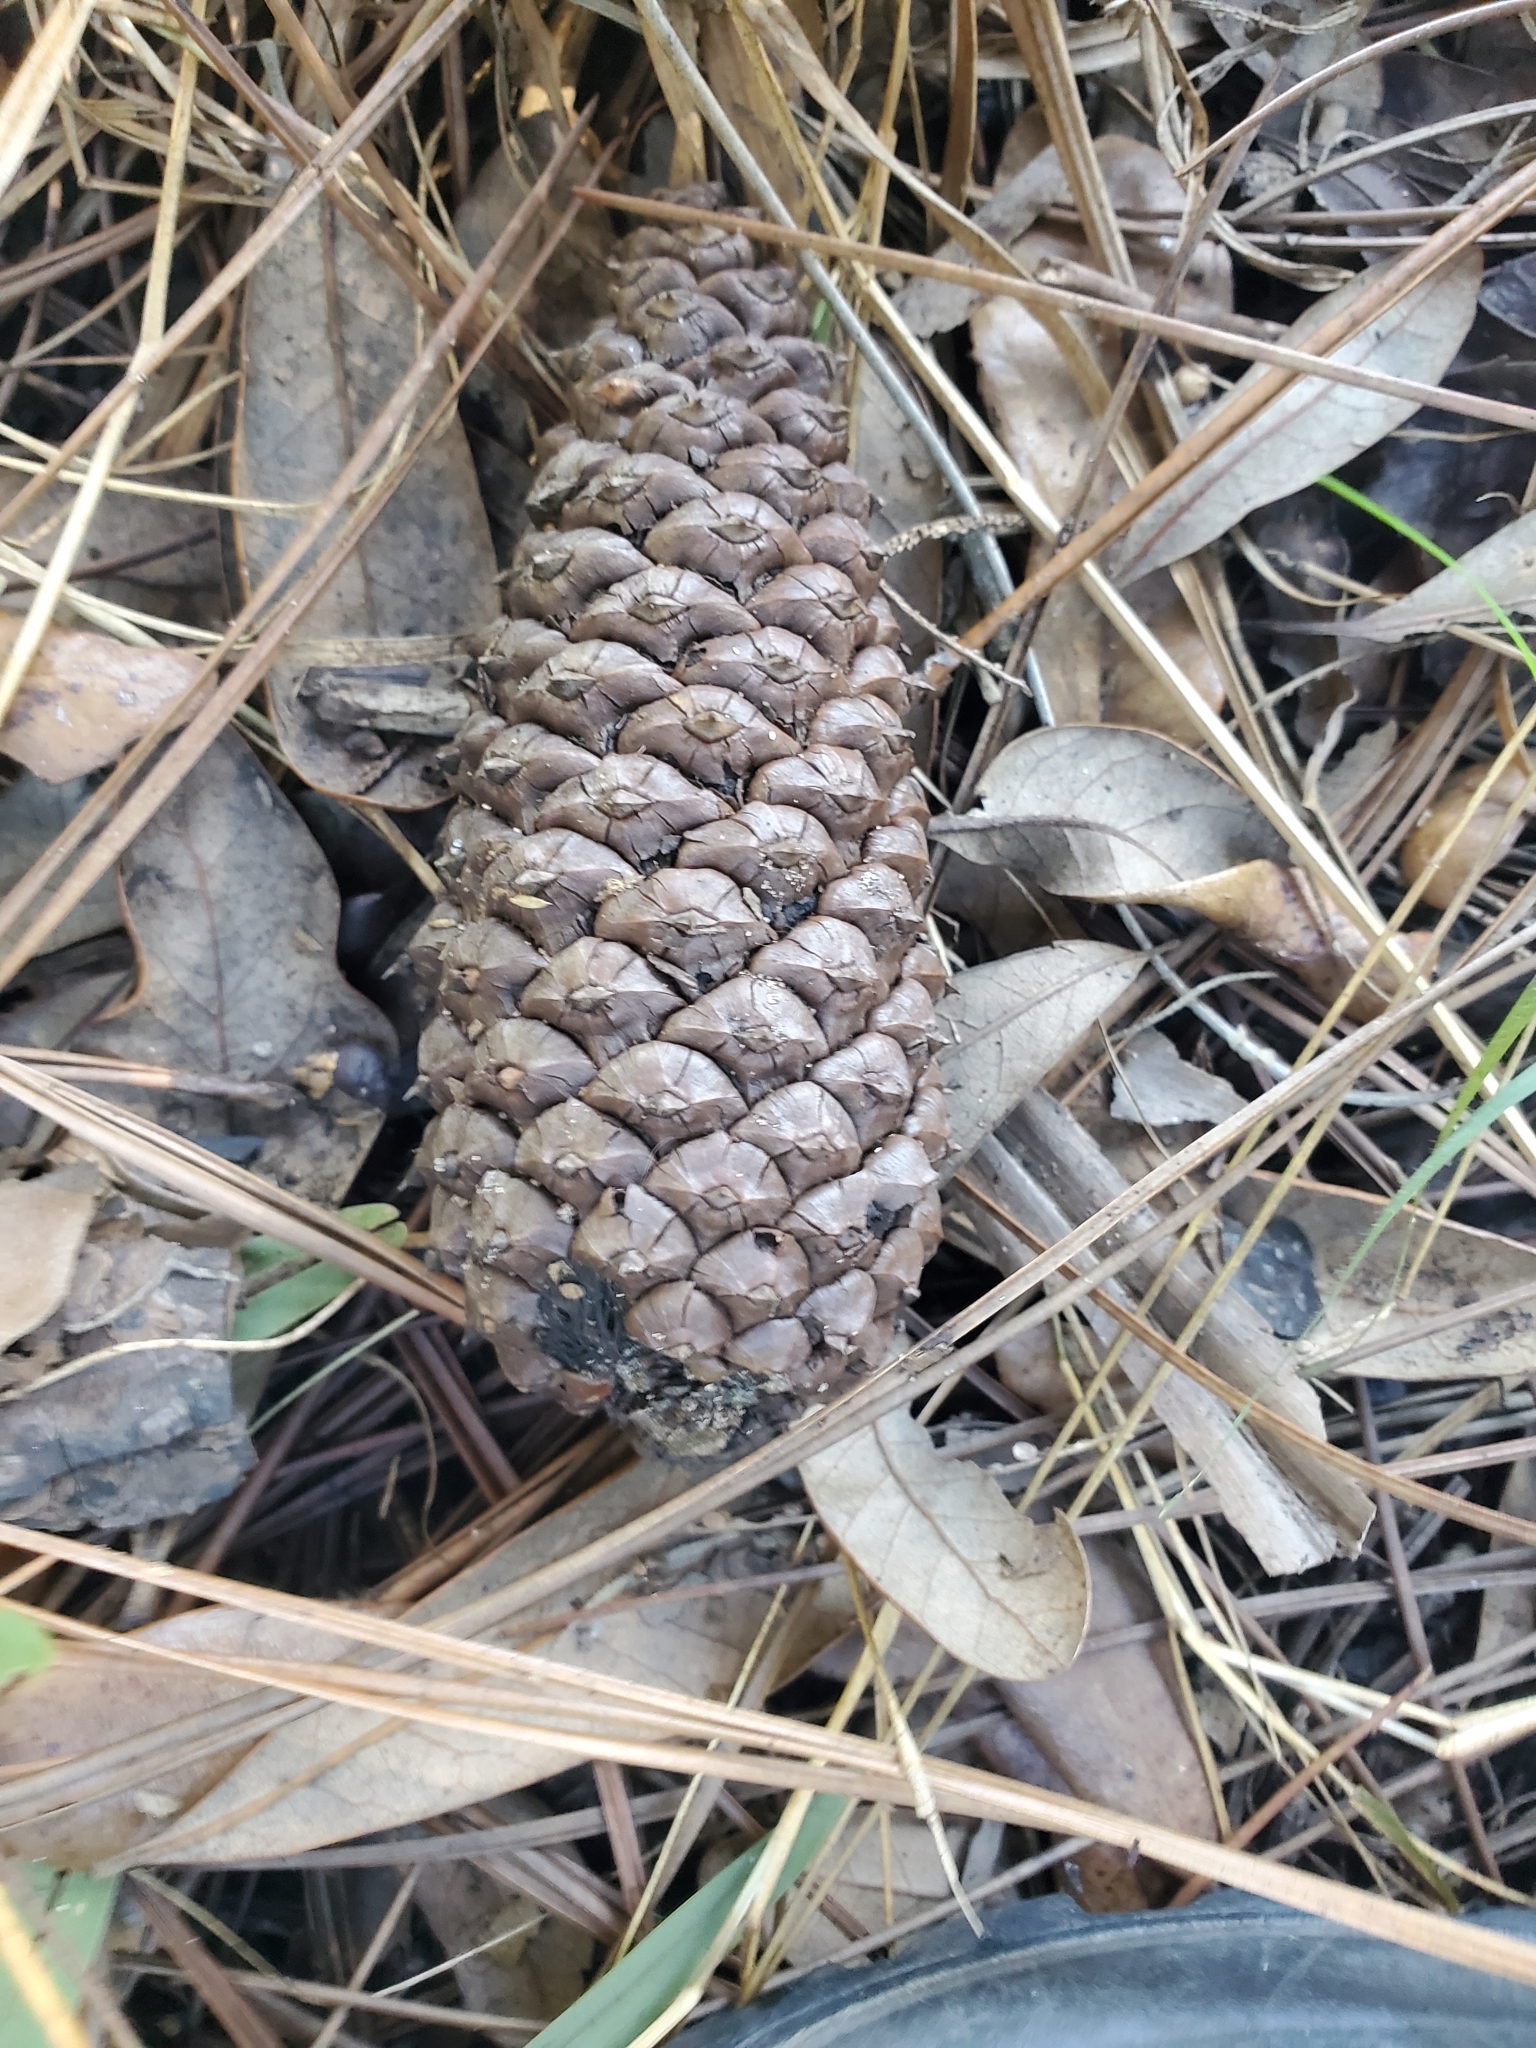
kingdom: Plantae
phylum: Tracheophyta
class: Pinopsida
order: Pinales
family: Pinaceae
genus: Pinus
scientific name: Pinus elliottii
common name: Slash pine
